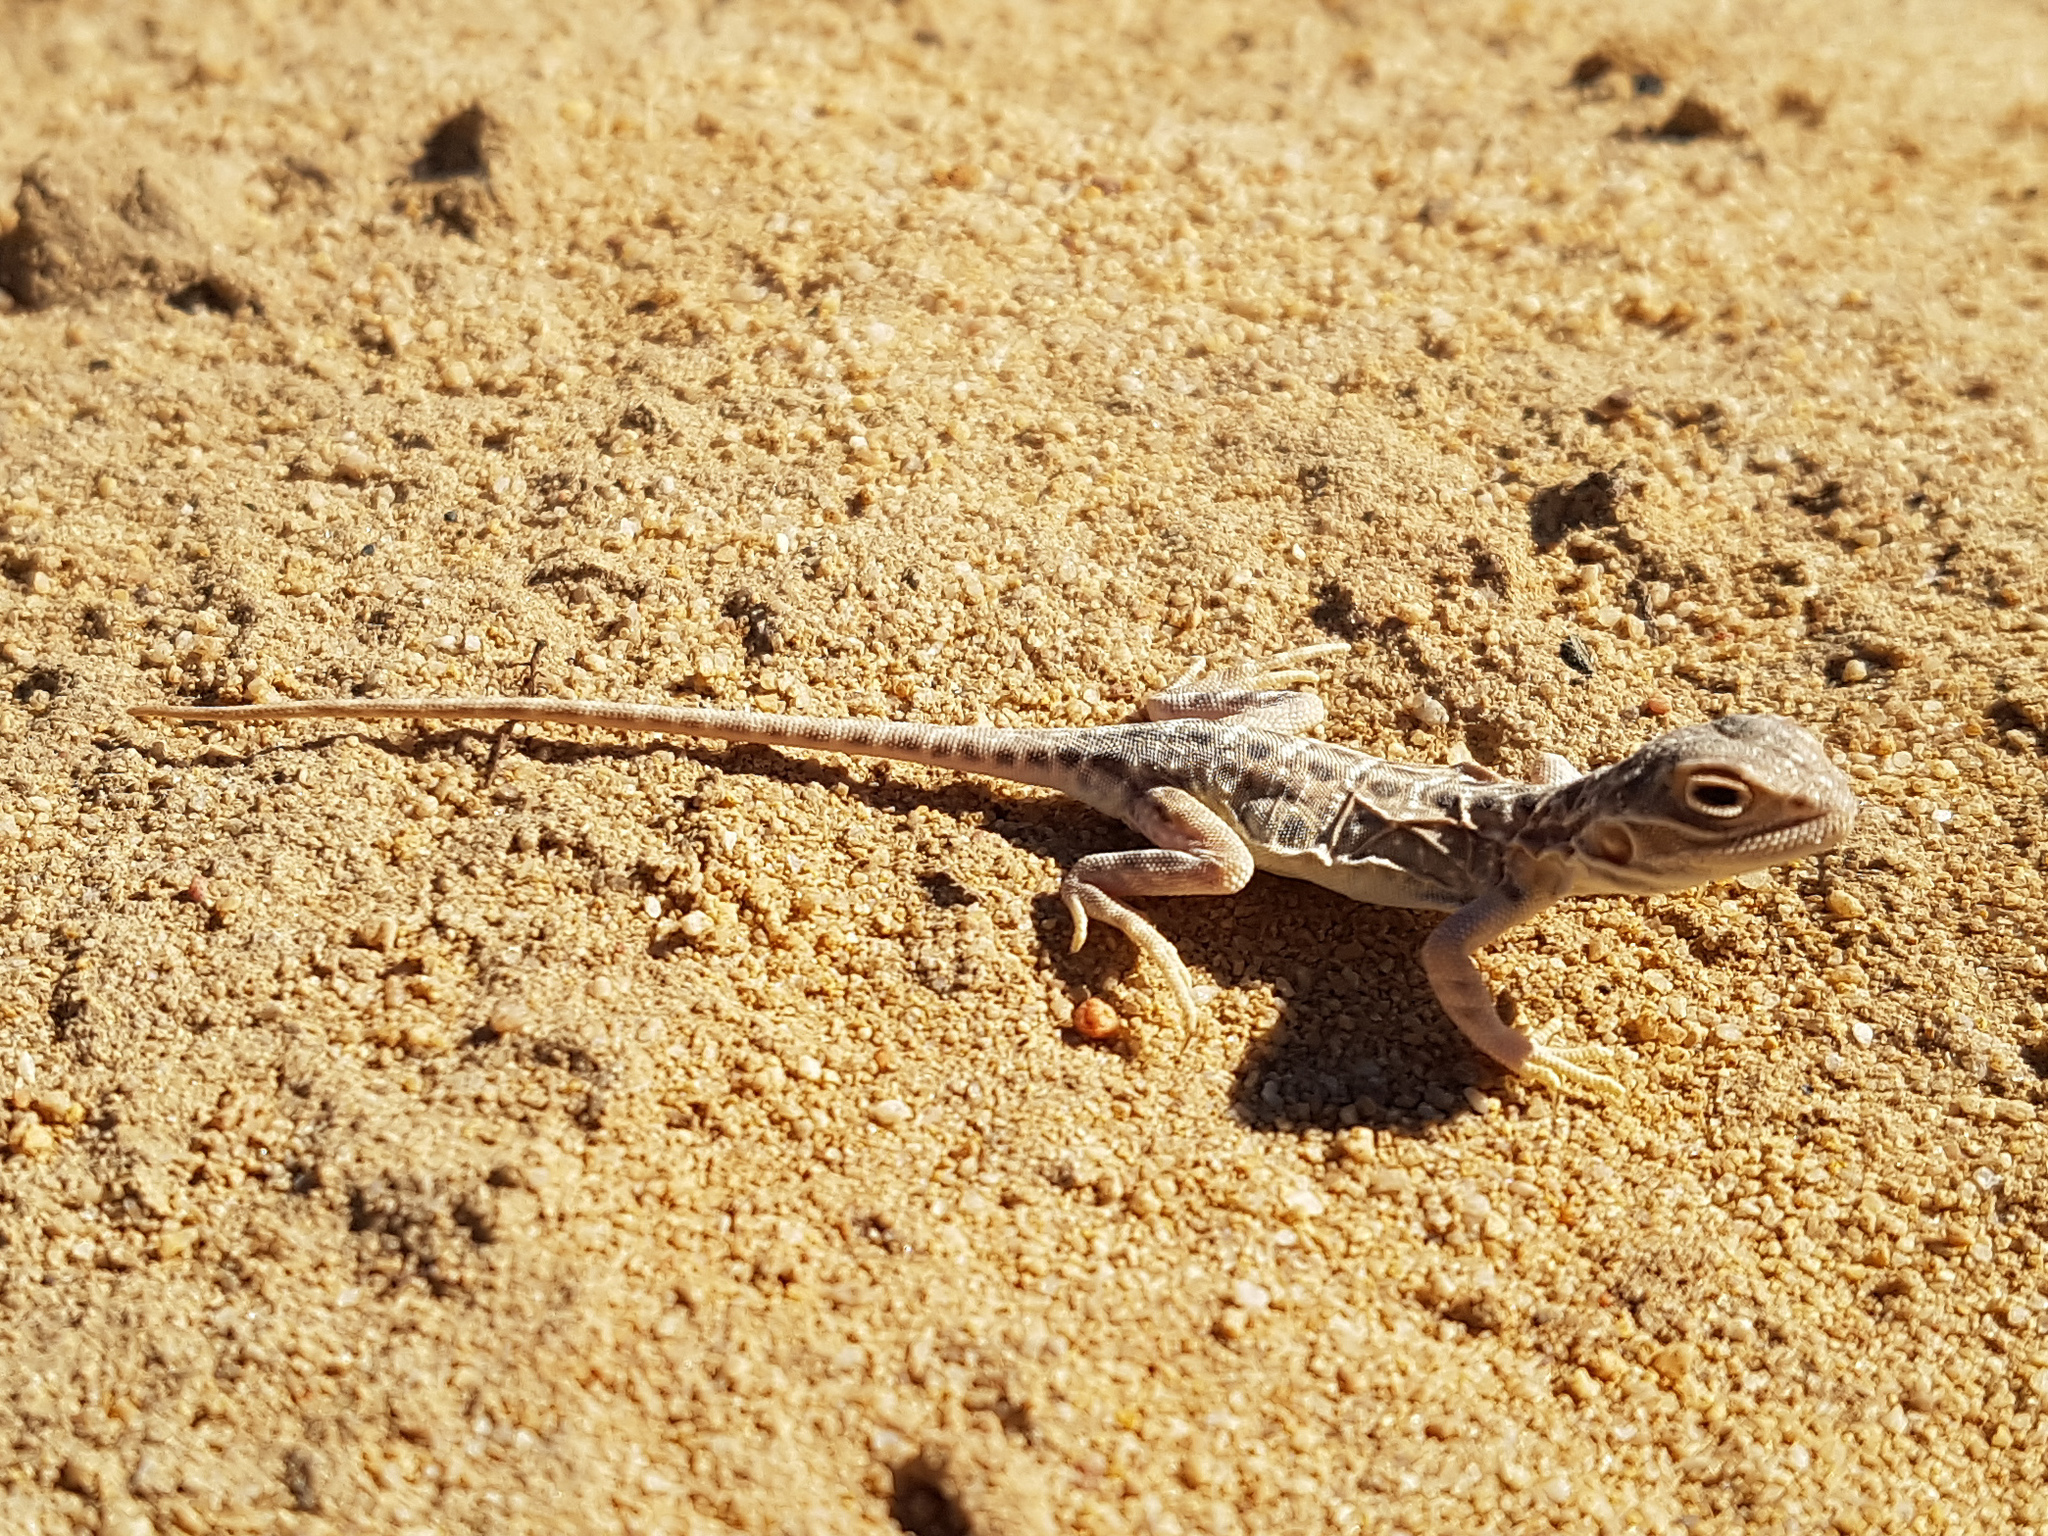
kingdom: Animalia
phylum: Chordata
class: Squamata
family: Agamidae
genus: Ctenophorus
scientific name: Ctenophorus salinarum
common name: Saltpan ground-dragon
